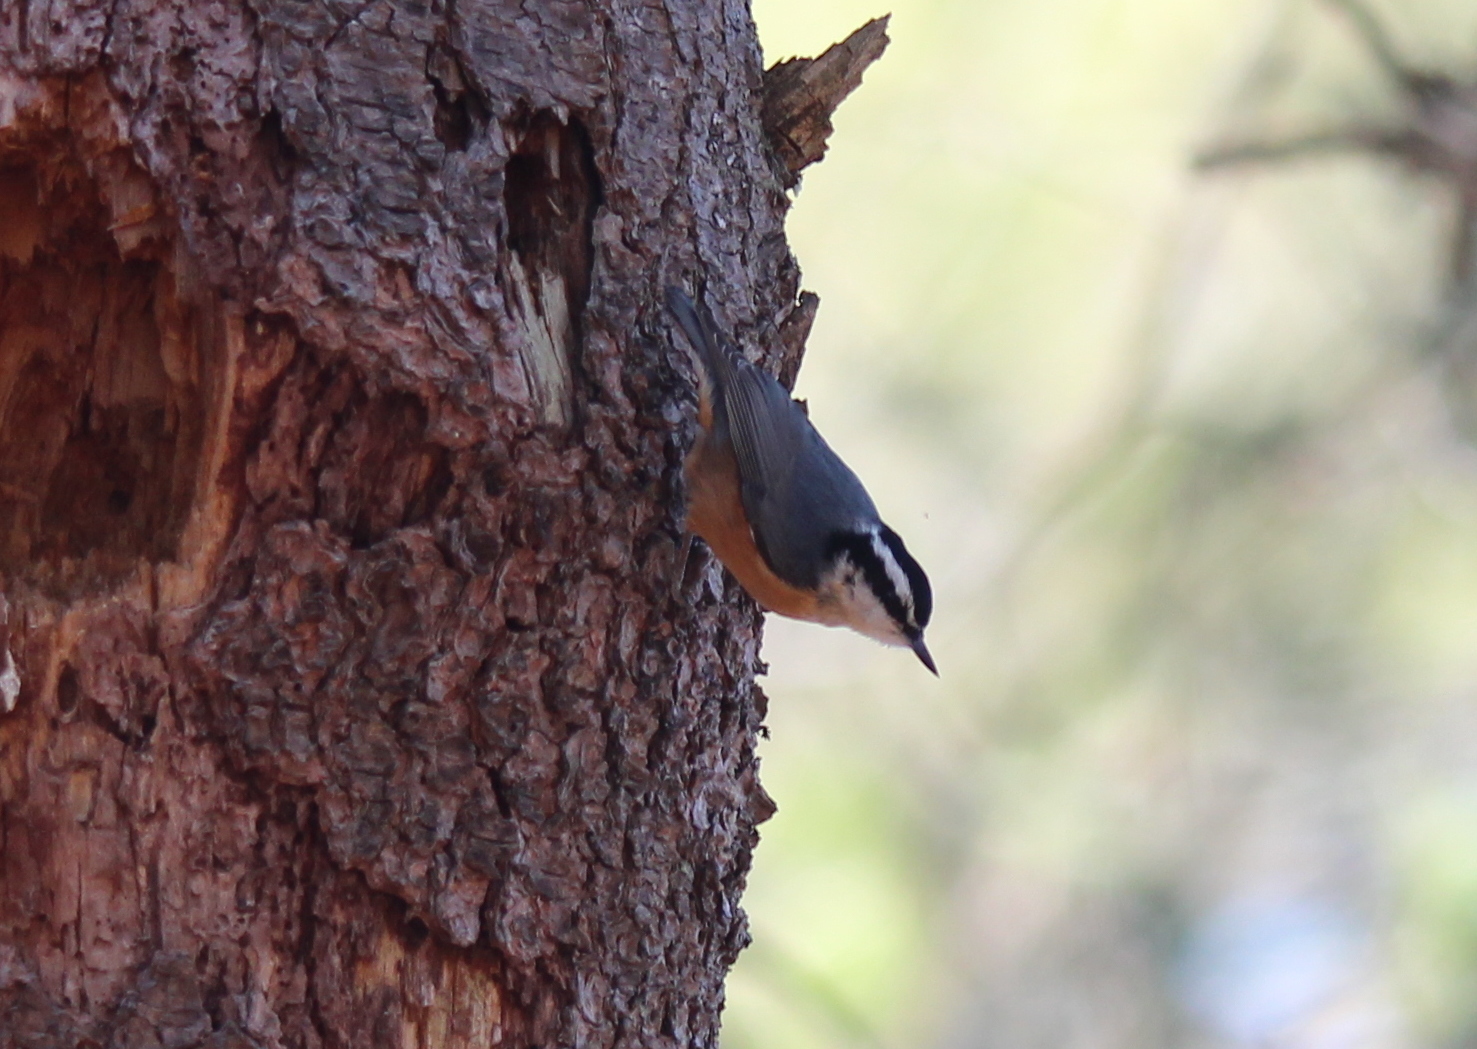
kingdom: Animalia
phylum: Chordata
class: Aves
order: Passeriformes
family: Sittidae
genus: Sitta
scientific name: Sitta canadensis
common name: Red-breasted nuthatch
